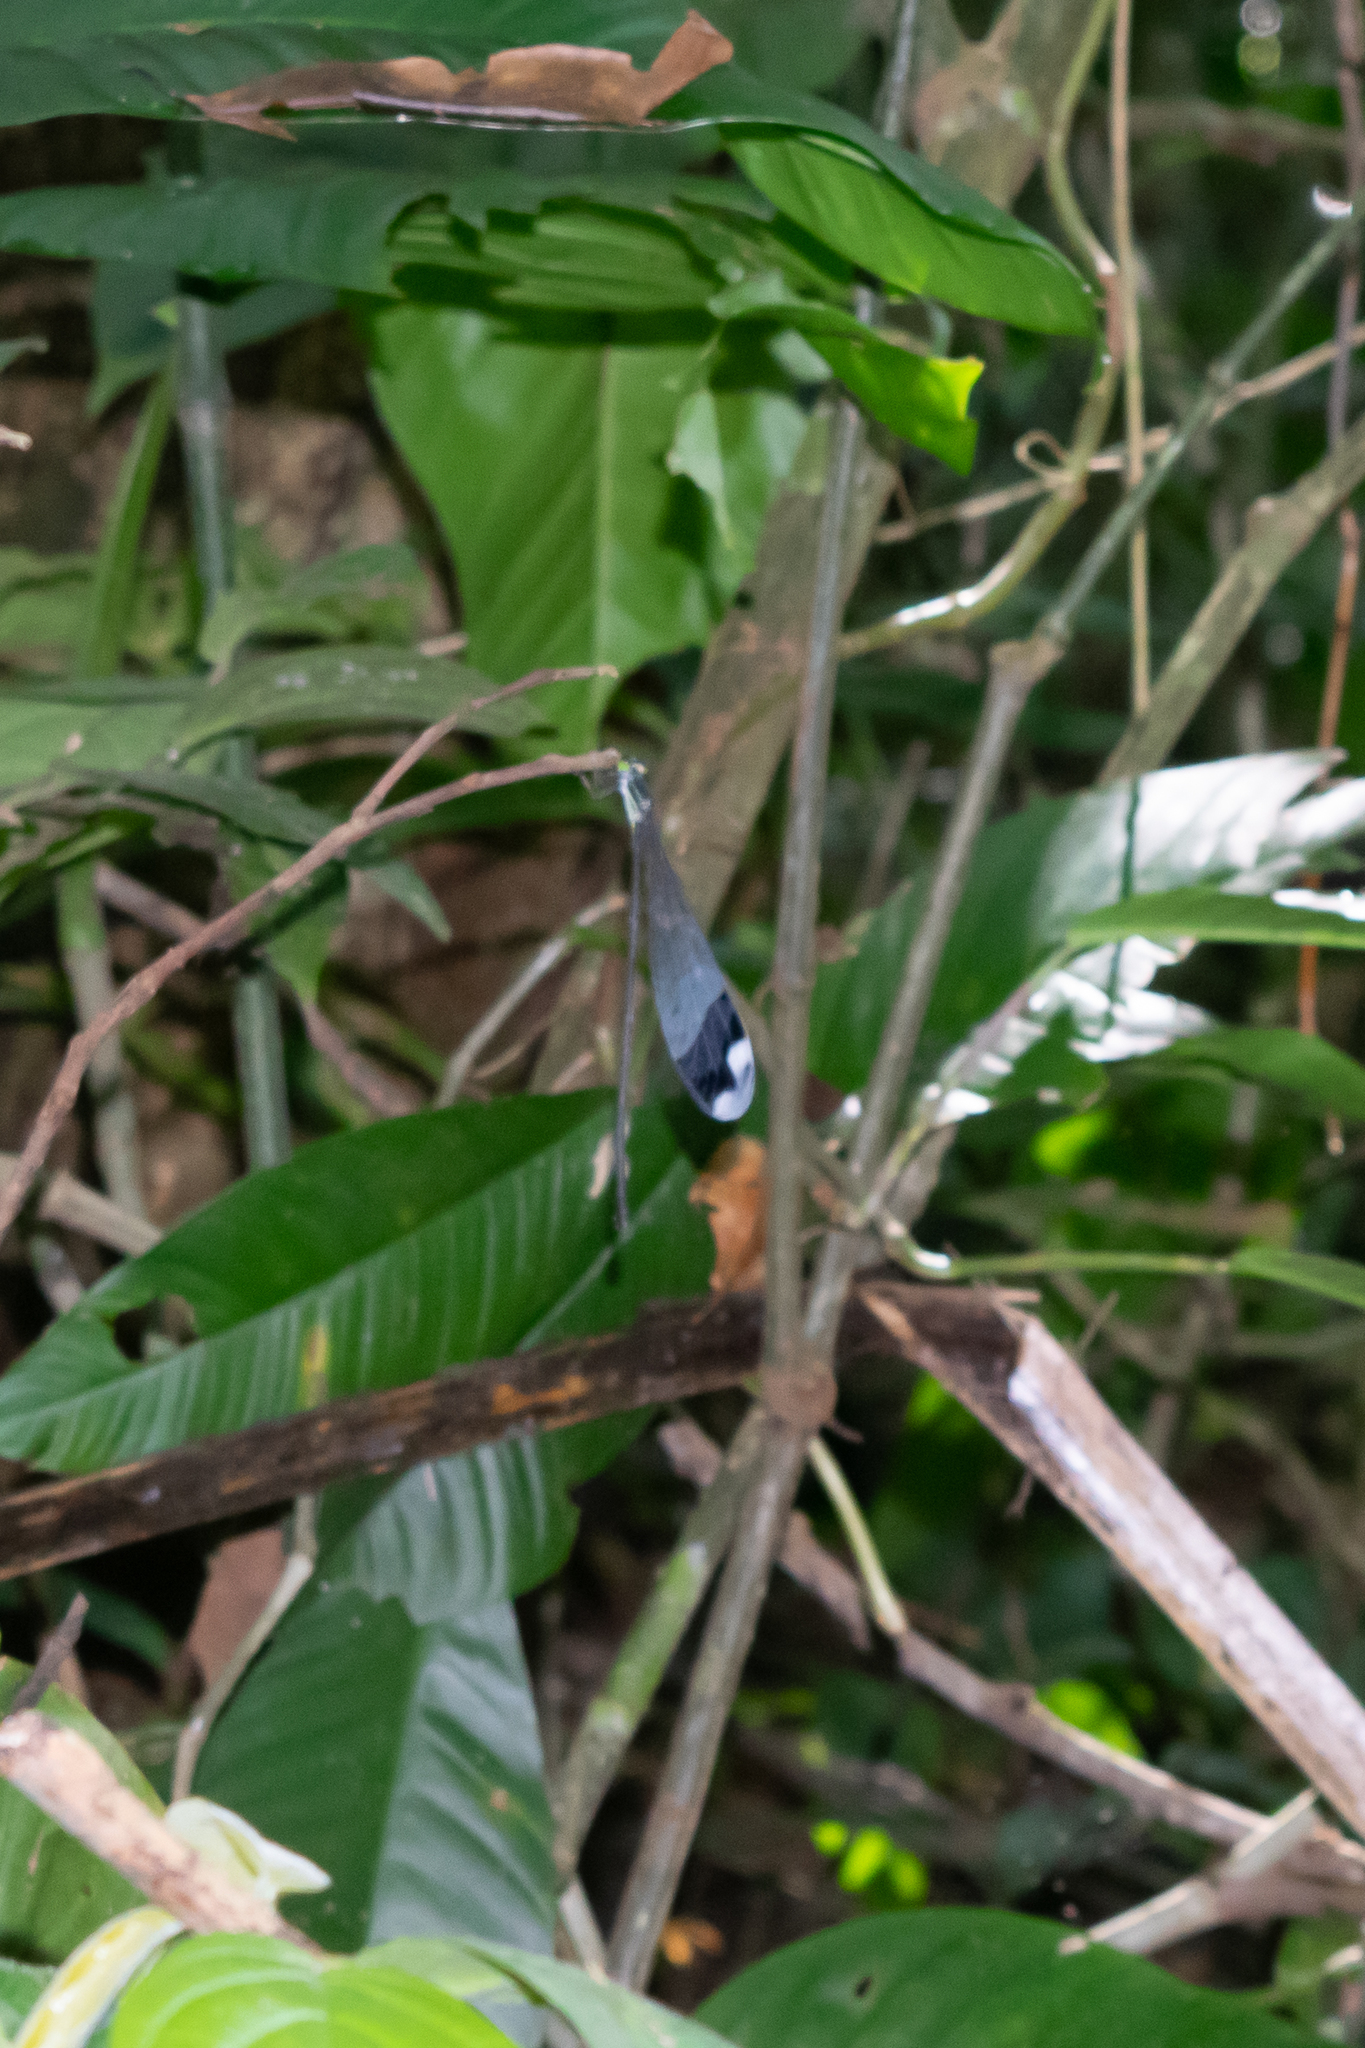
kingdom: Animalia
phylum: Arthropoda
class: Insecta
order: Odonata
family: Coenagrionidae
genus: Megaloprepus
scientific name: Megaloprepus caerulatus
